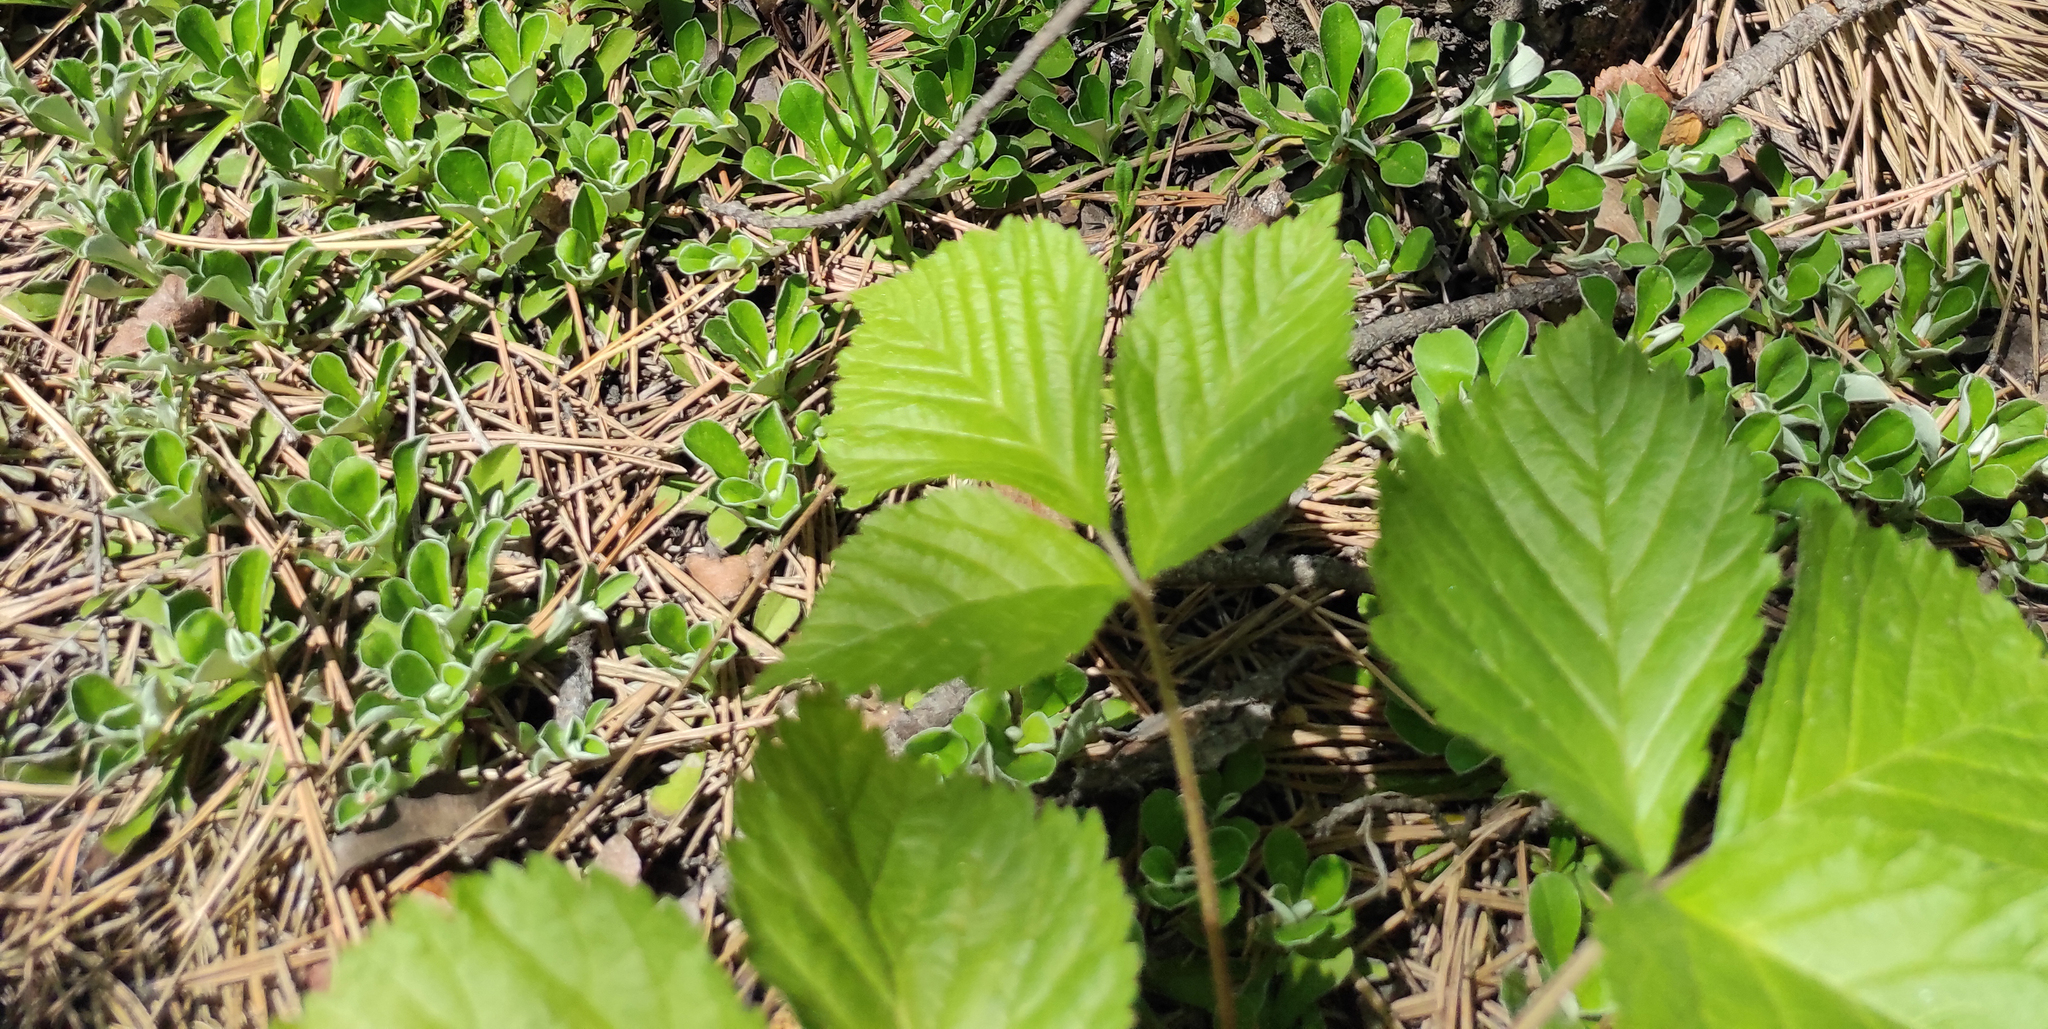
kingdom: Plantae
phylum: Tracheophyta
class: Magnoliopsida
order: Asterales
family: Asteraceae
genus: Antennaria
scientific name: Antennaria dioica
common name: Mountain everlasting
